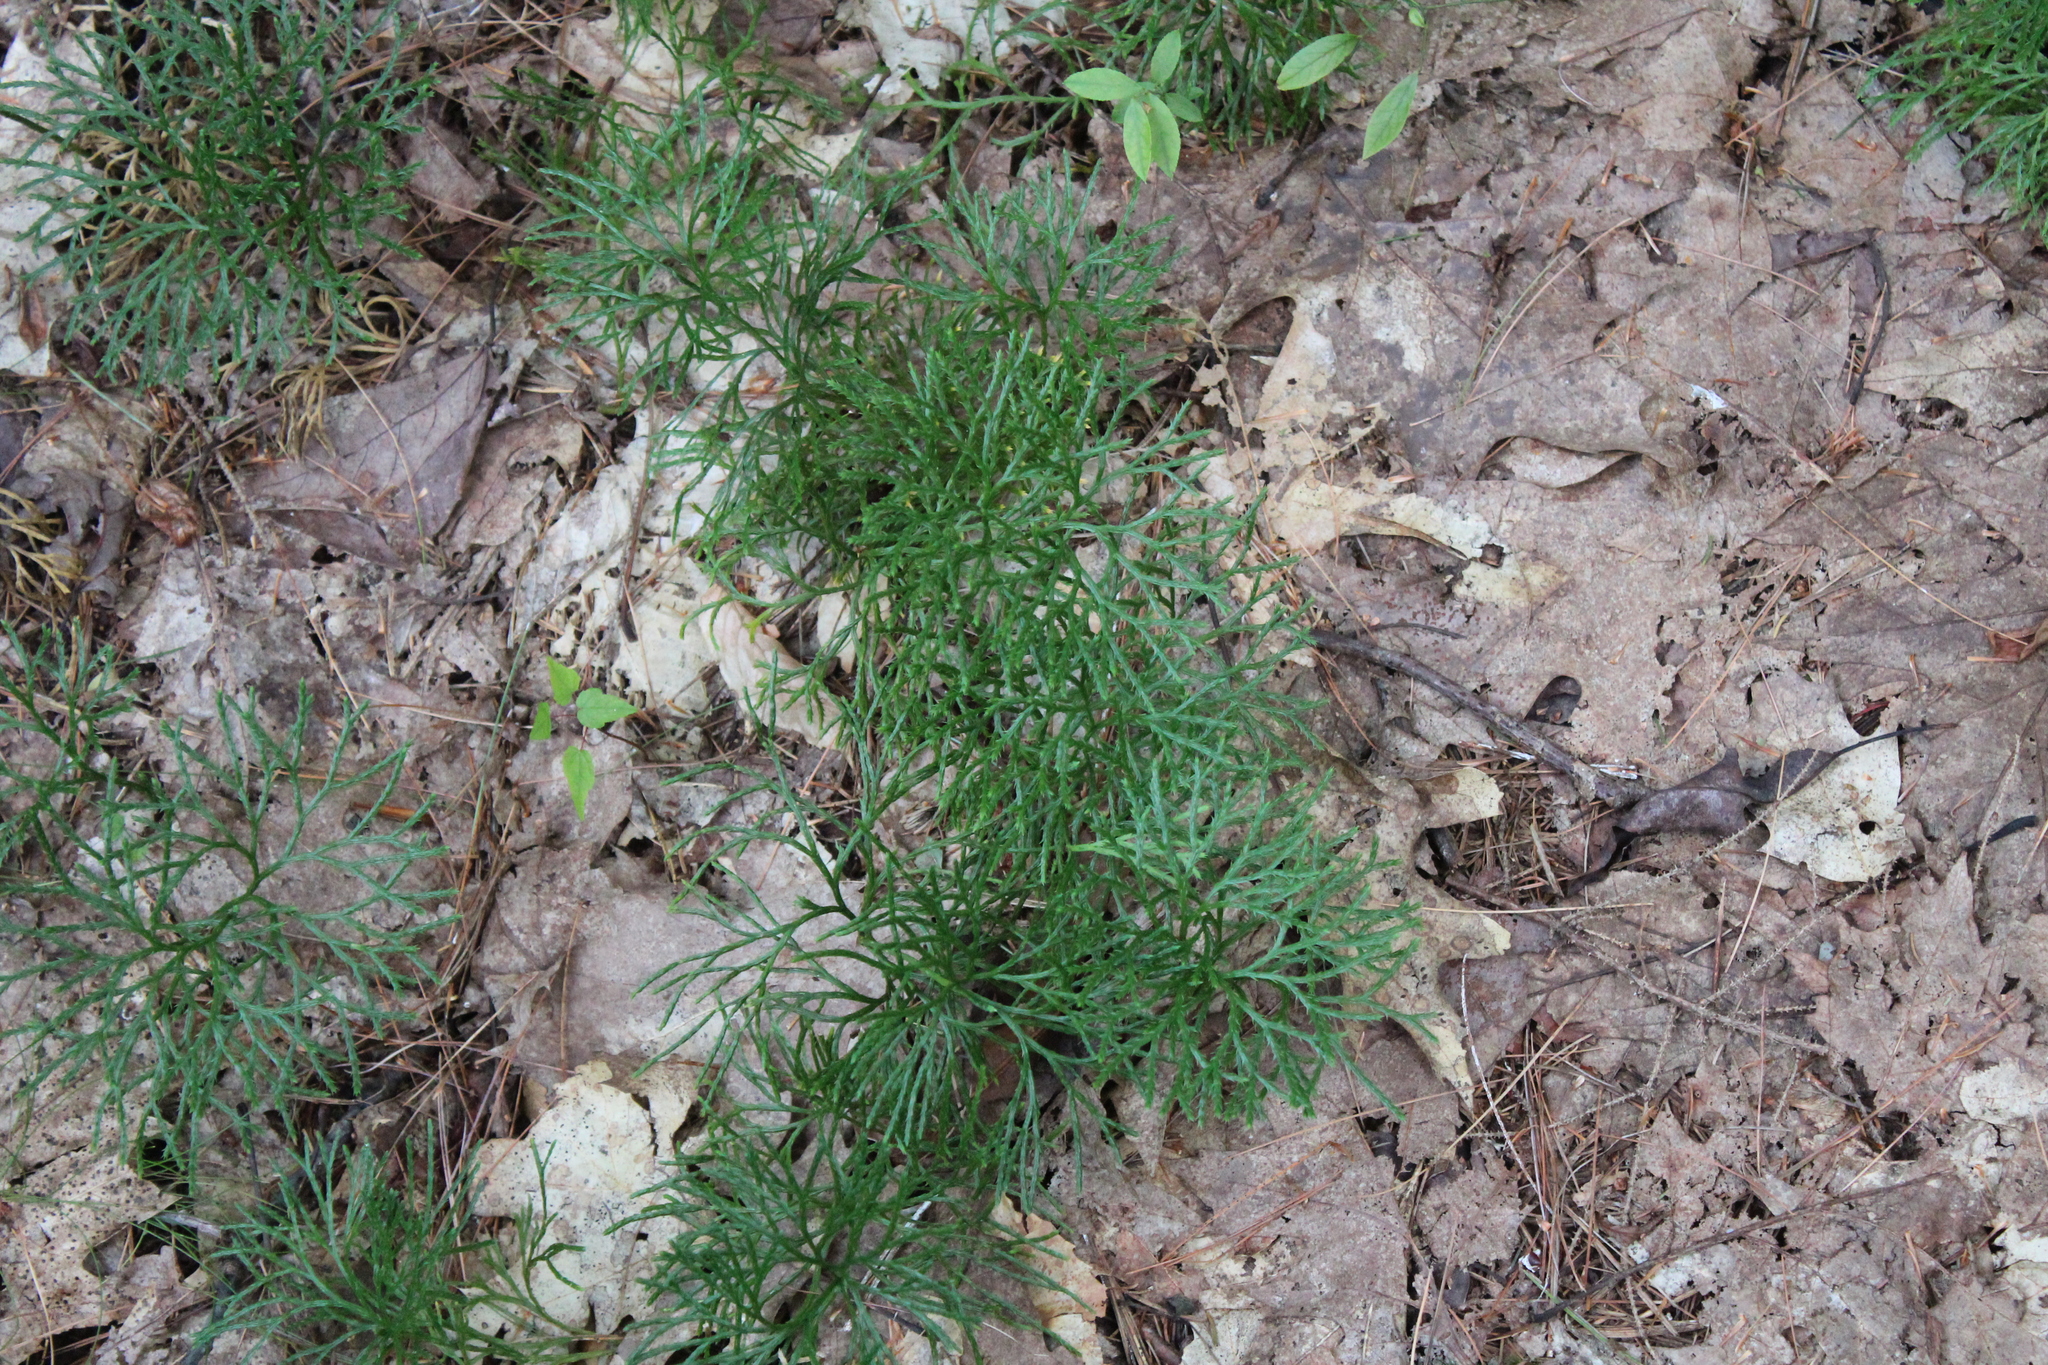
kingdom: Plantae
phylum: Tracheophyta
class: Lycopodiopsida
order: Lycopodiales
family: Lycopodiaceae
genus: Diphasiastrum
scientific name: Diphasiastrum digitatum
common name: Southern running-pine
